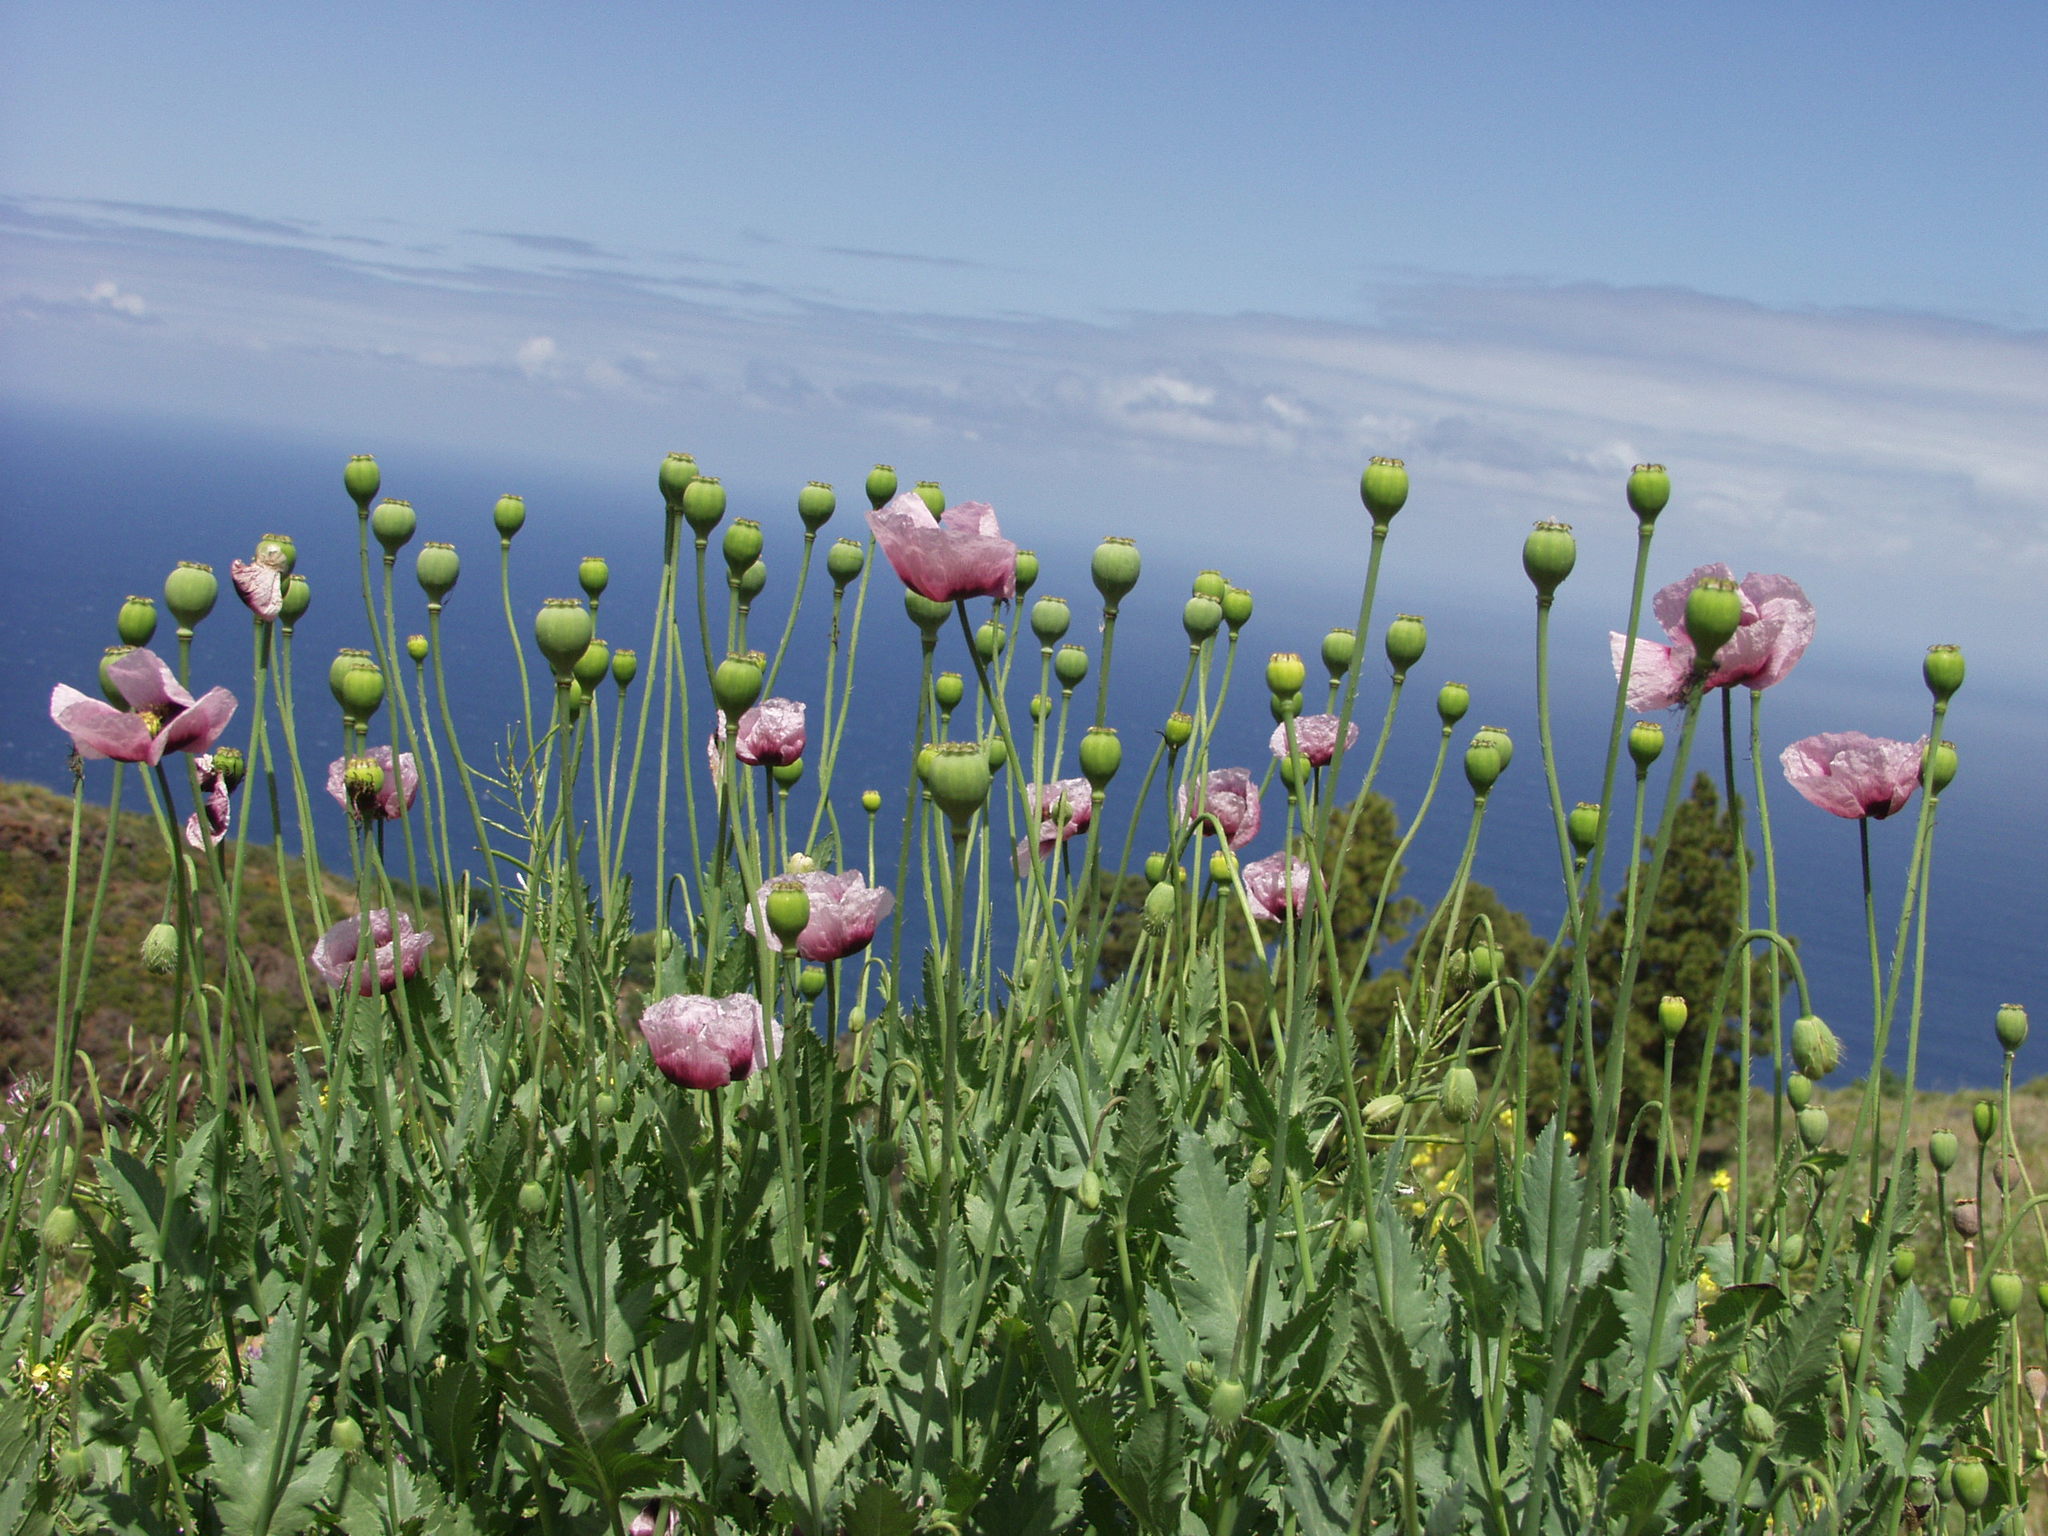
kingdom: Plantae
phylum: Tracheophyta
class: Magnoliopsida
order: Ranunculales
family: Papaveraceae
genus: Papaver
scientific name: Papaver somniferum
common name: Opium poppy
